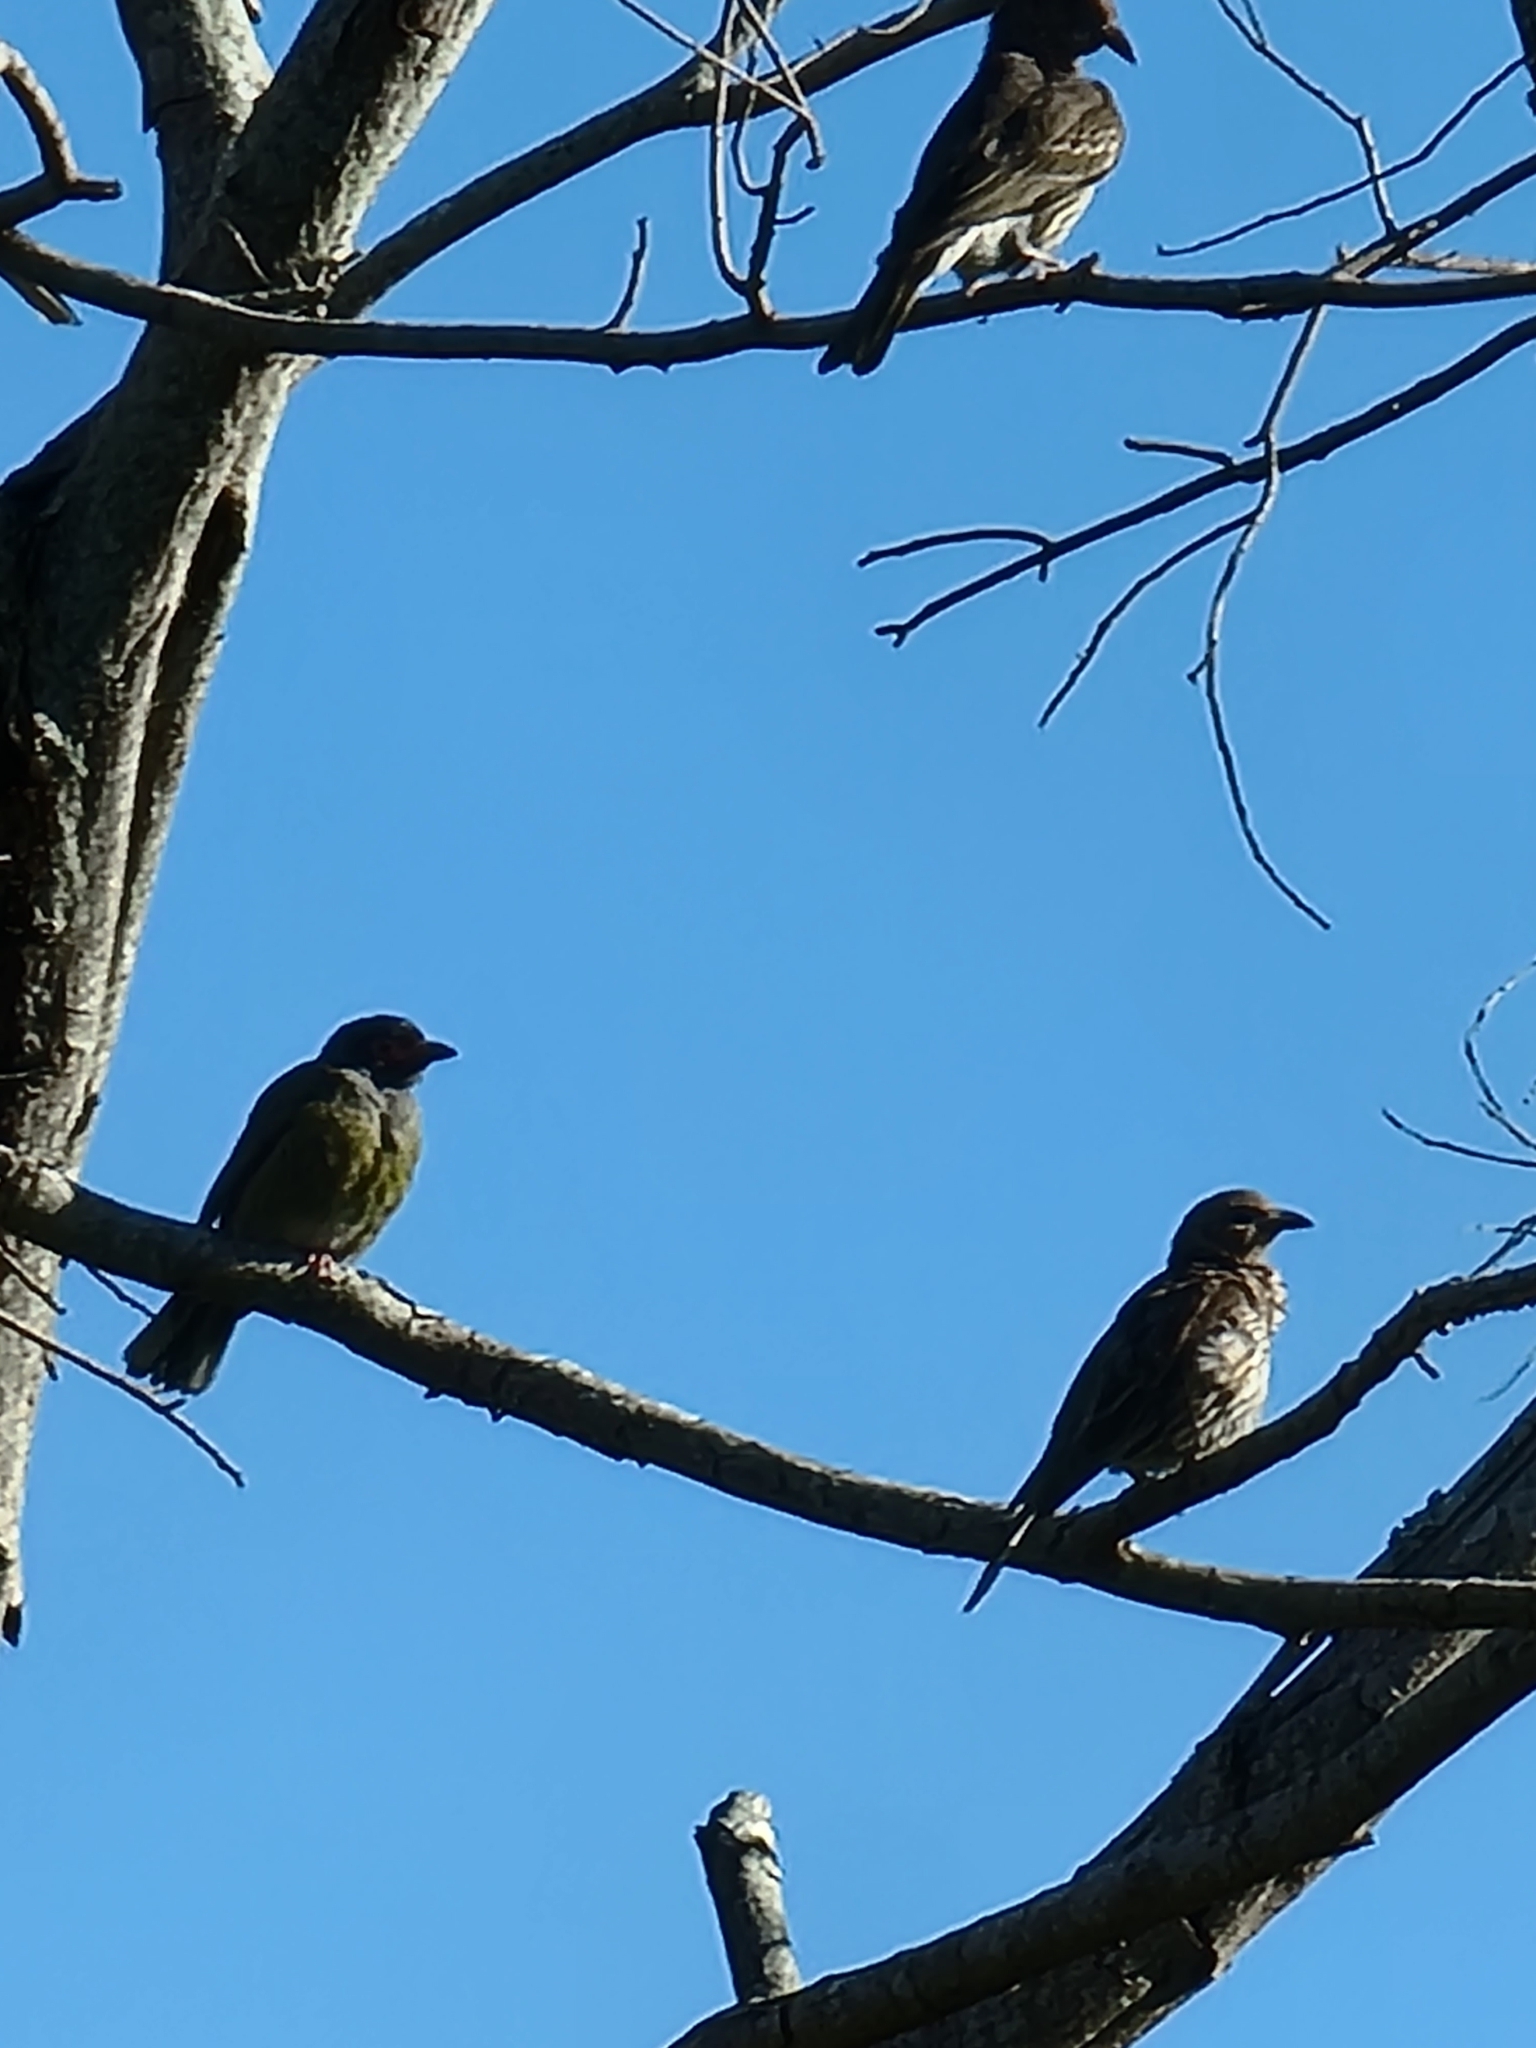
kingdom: Animalia
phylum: Chordata
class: Aves
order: Passeriformes
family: Oriolidae
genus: Sphecotheres
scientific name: Sphecotheres vieilloti
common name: Australasian figbird
